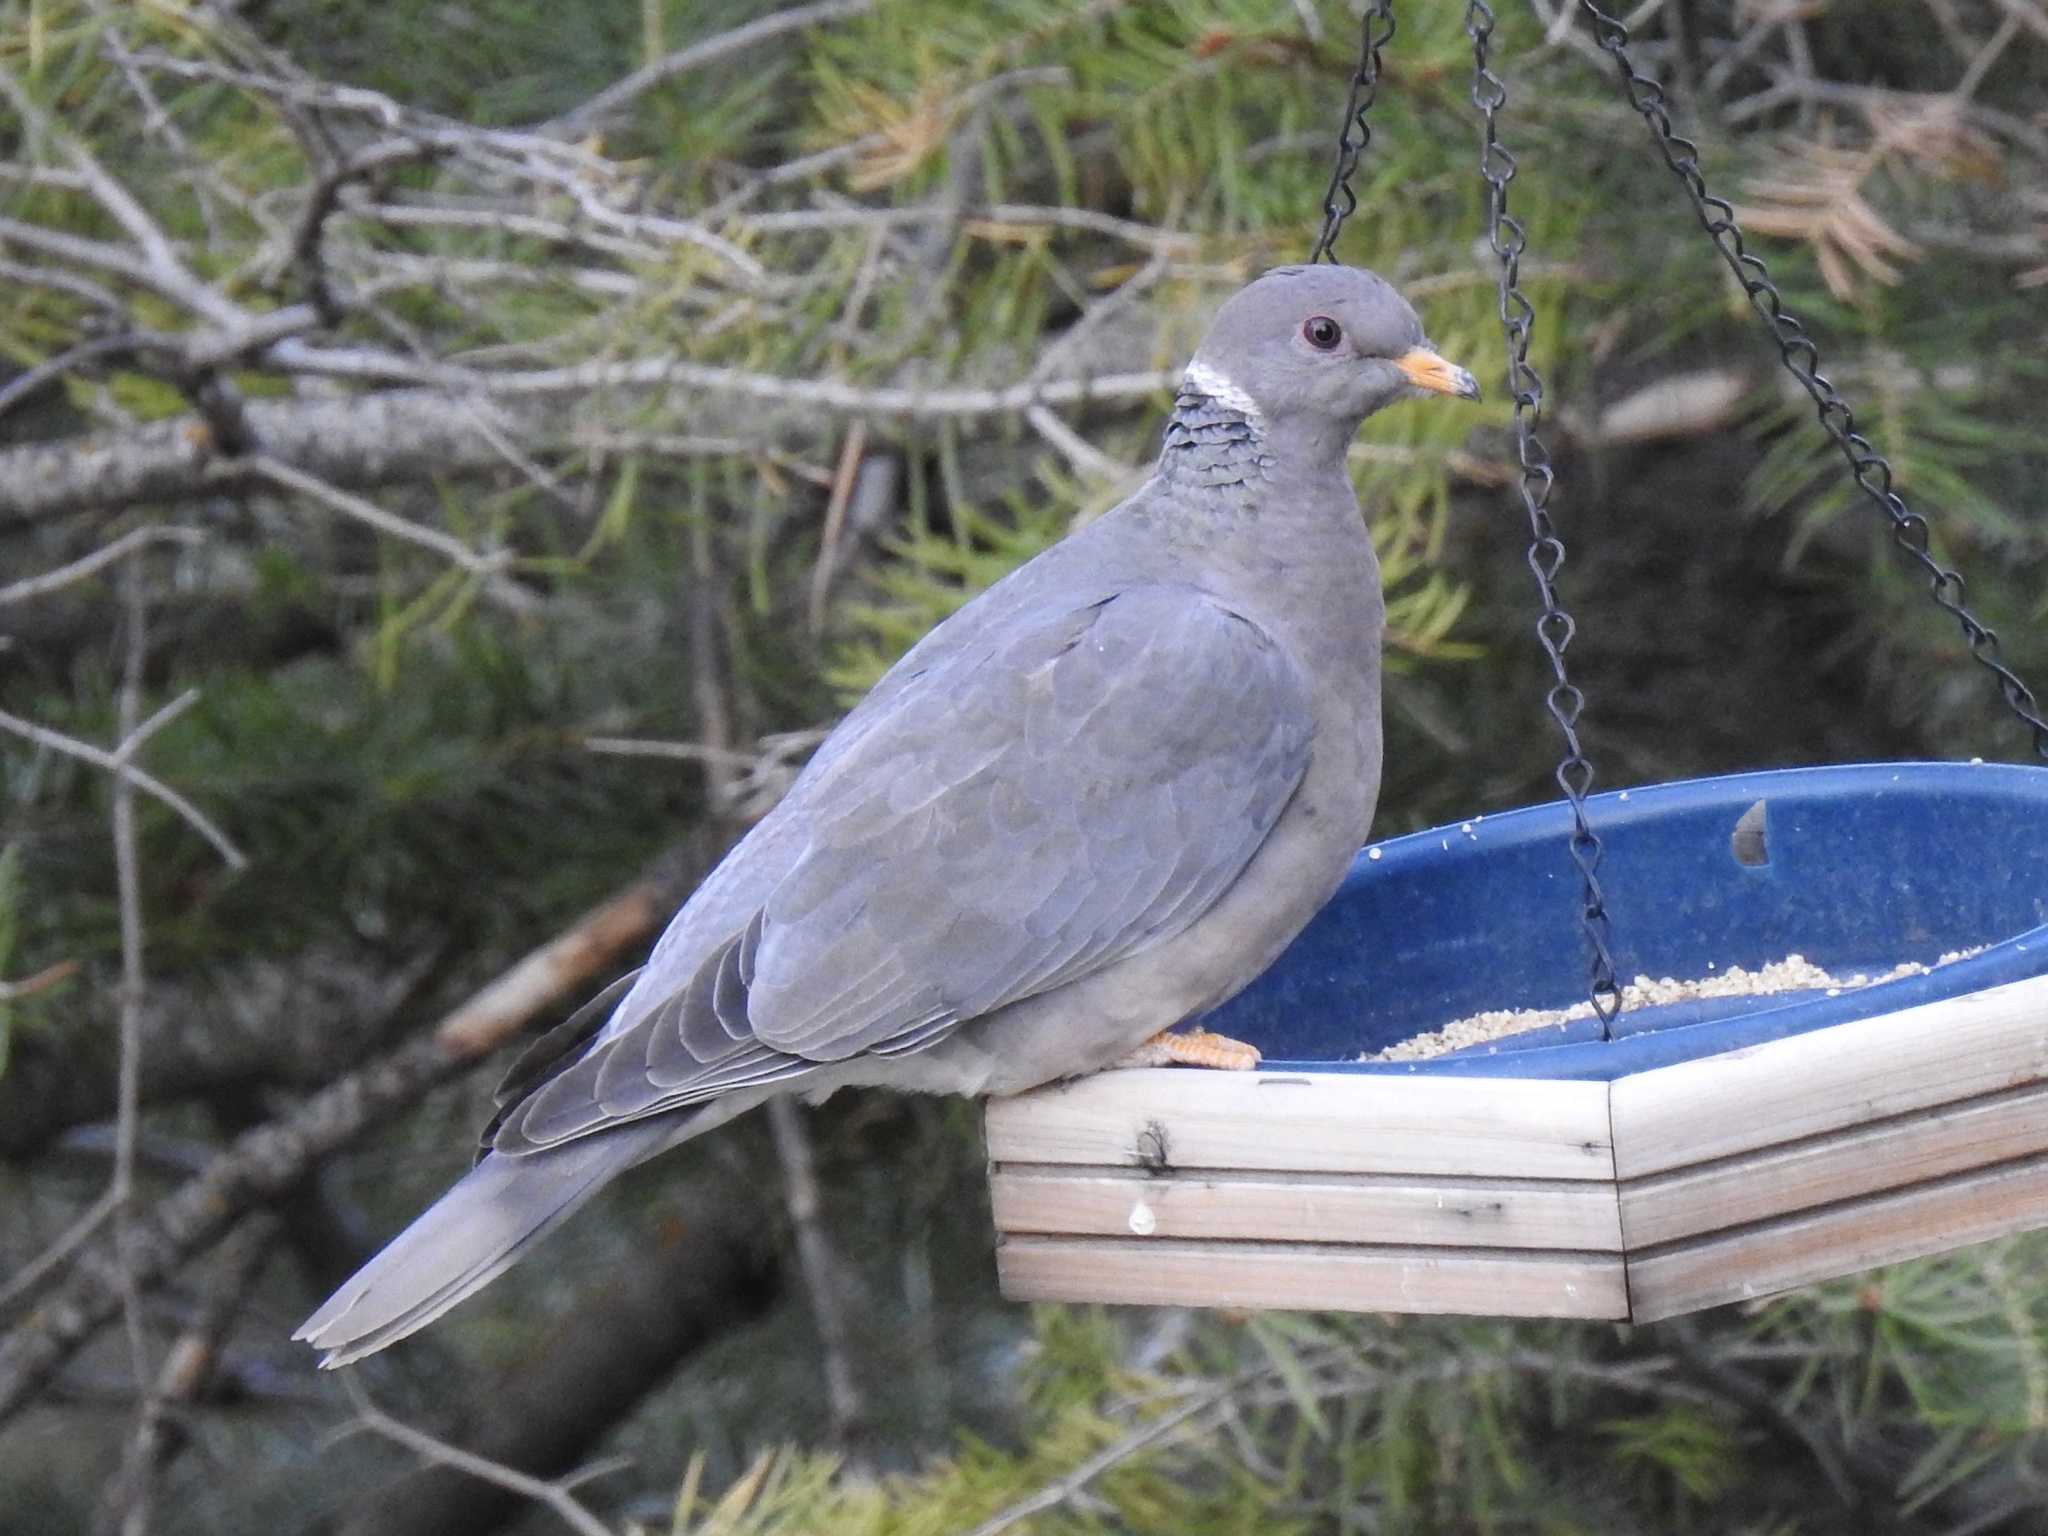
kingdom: Animalia
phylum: Chordata
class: Aves
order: Columbiformes
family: Columbidae
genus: Patagioenas
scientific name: Patagioenas fasciata
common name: Band-tailed pigeon
